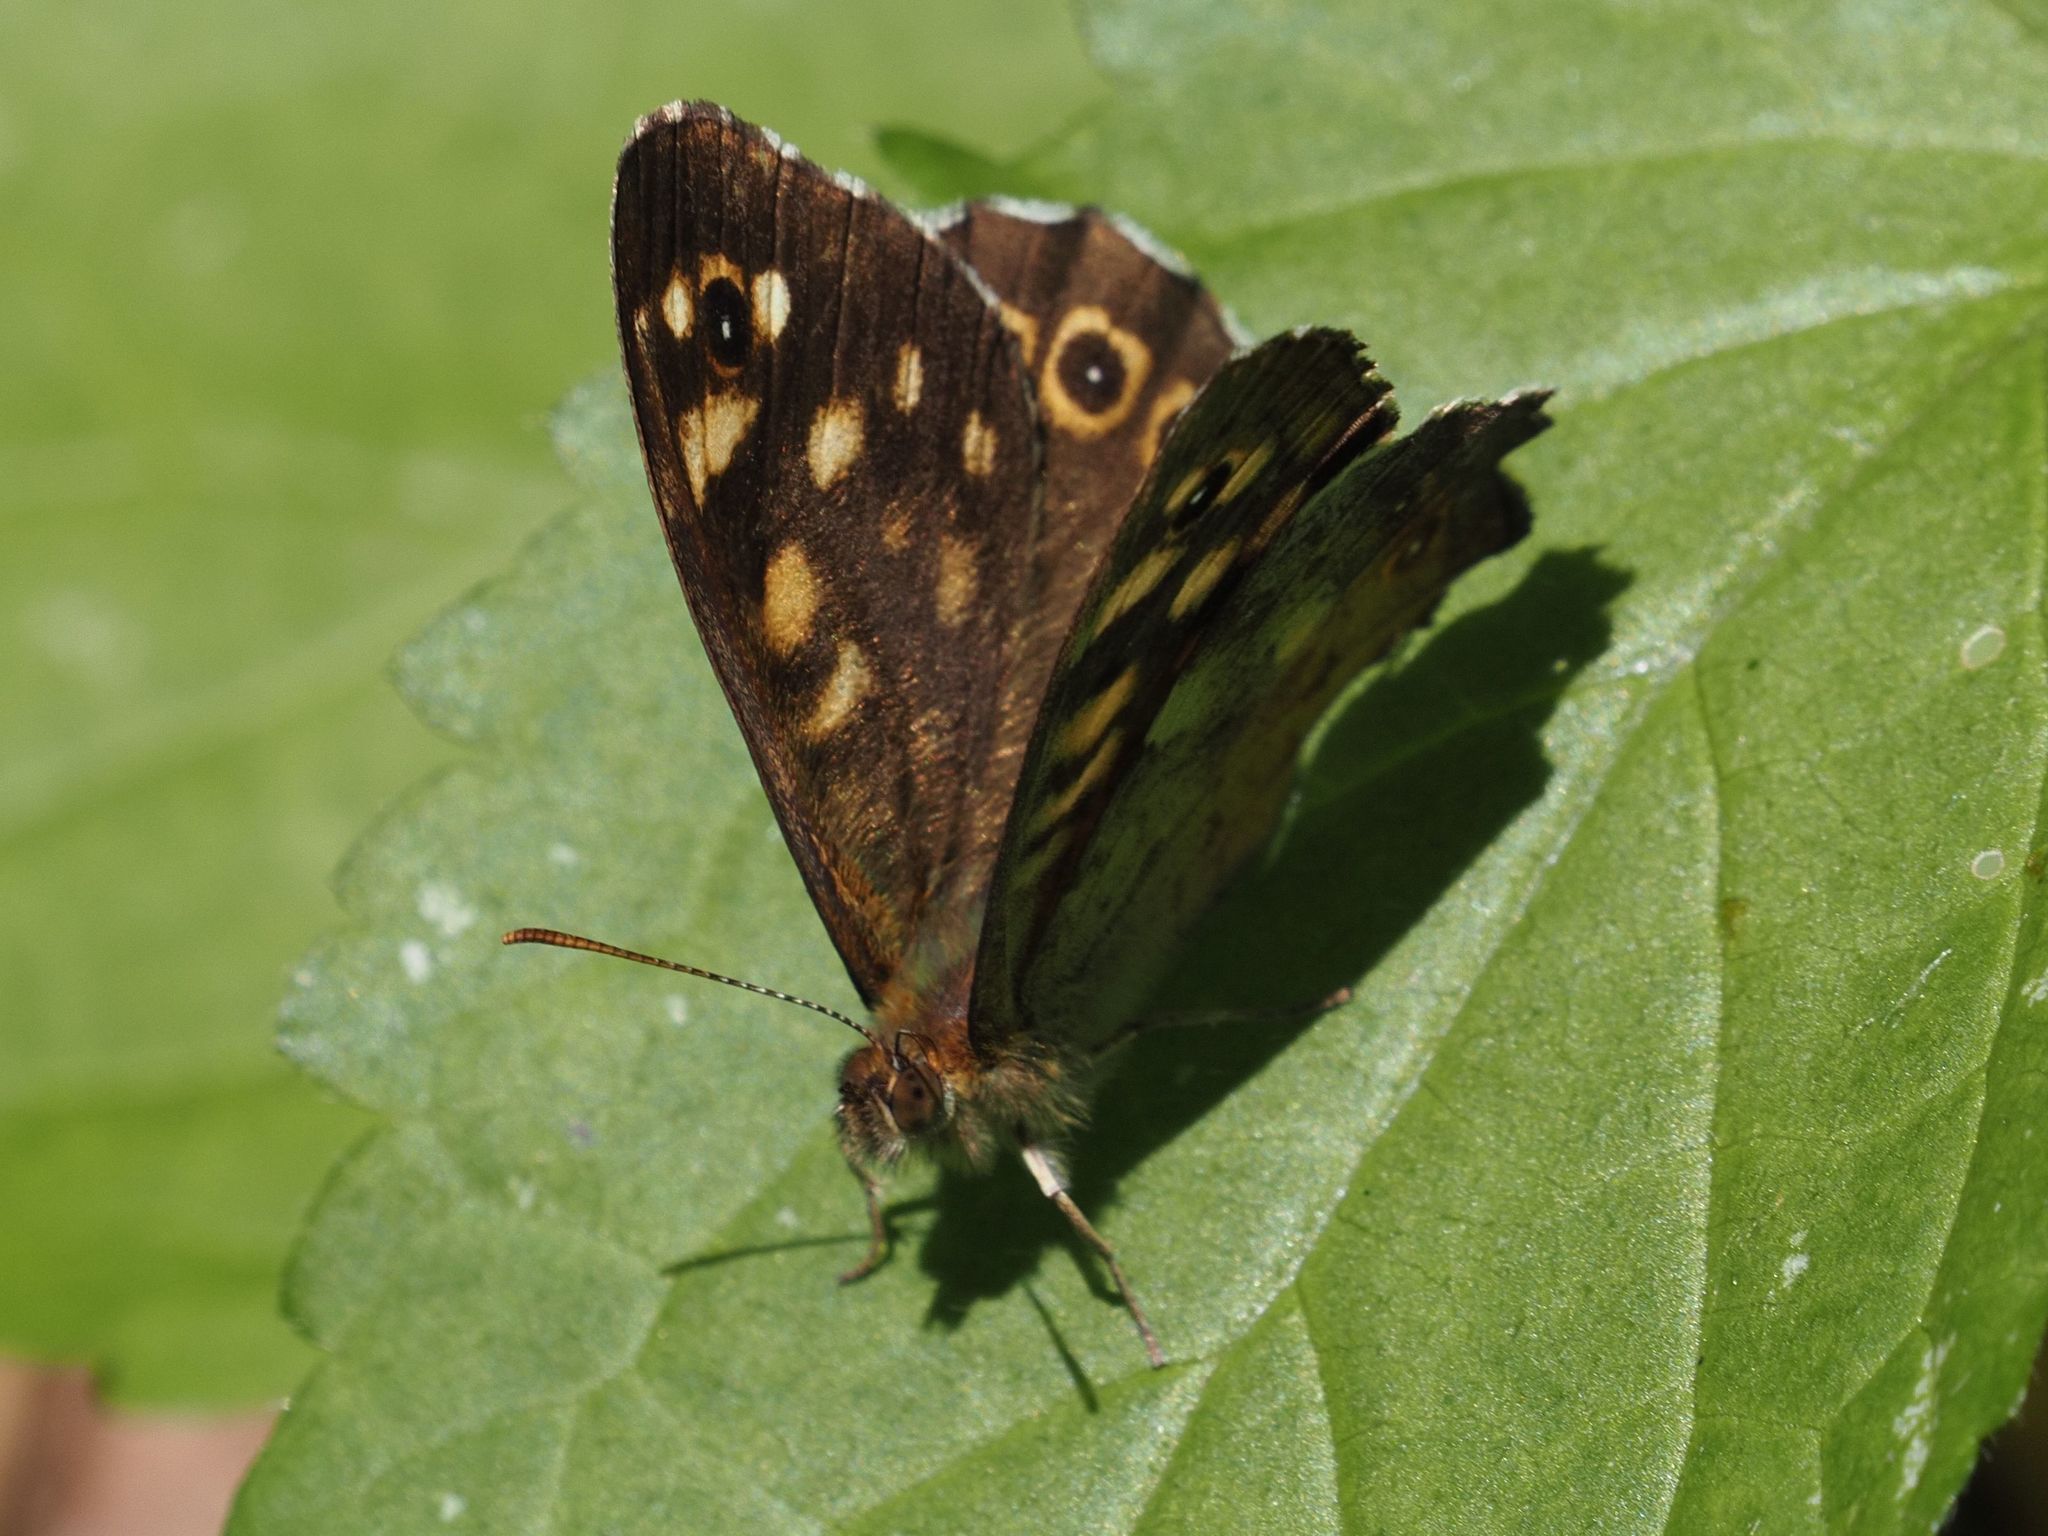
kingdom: Animalia
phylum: Arthropoda
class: Insecta
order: Lepidoptera
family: Nymphalidae
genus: Pararge
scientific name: Pararge aegeria
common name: Speckled wood
